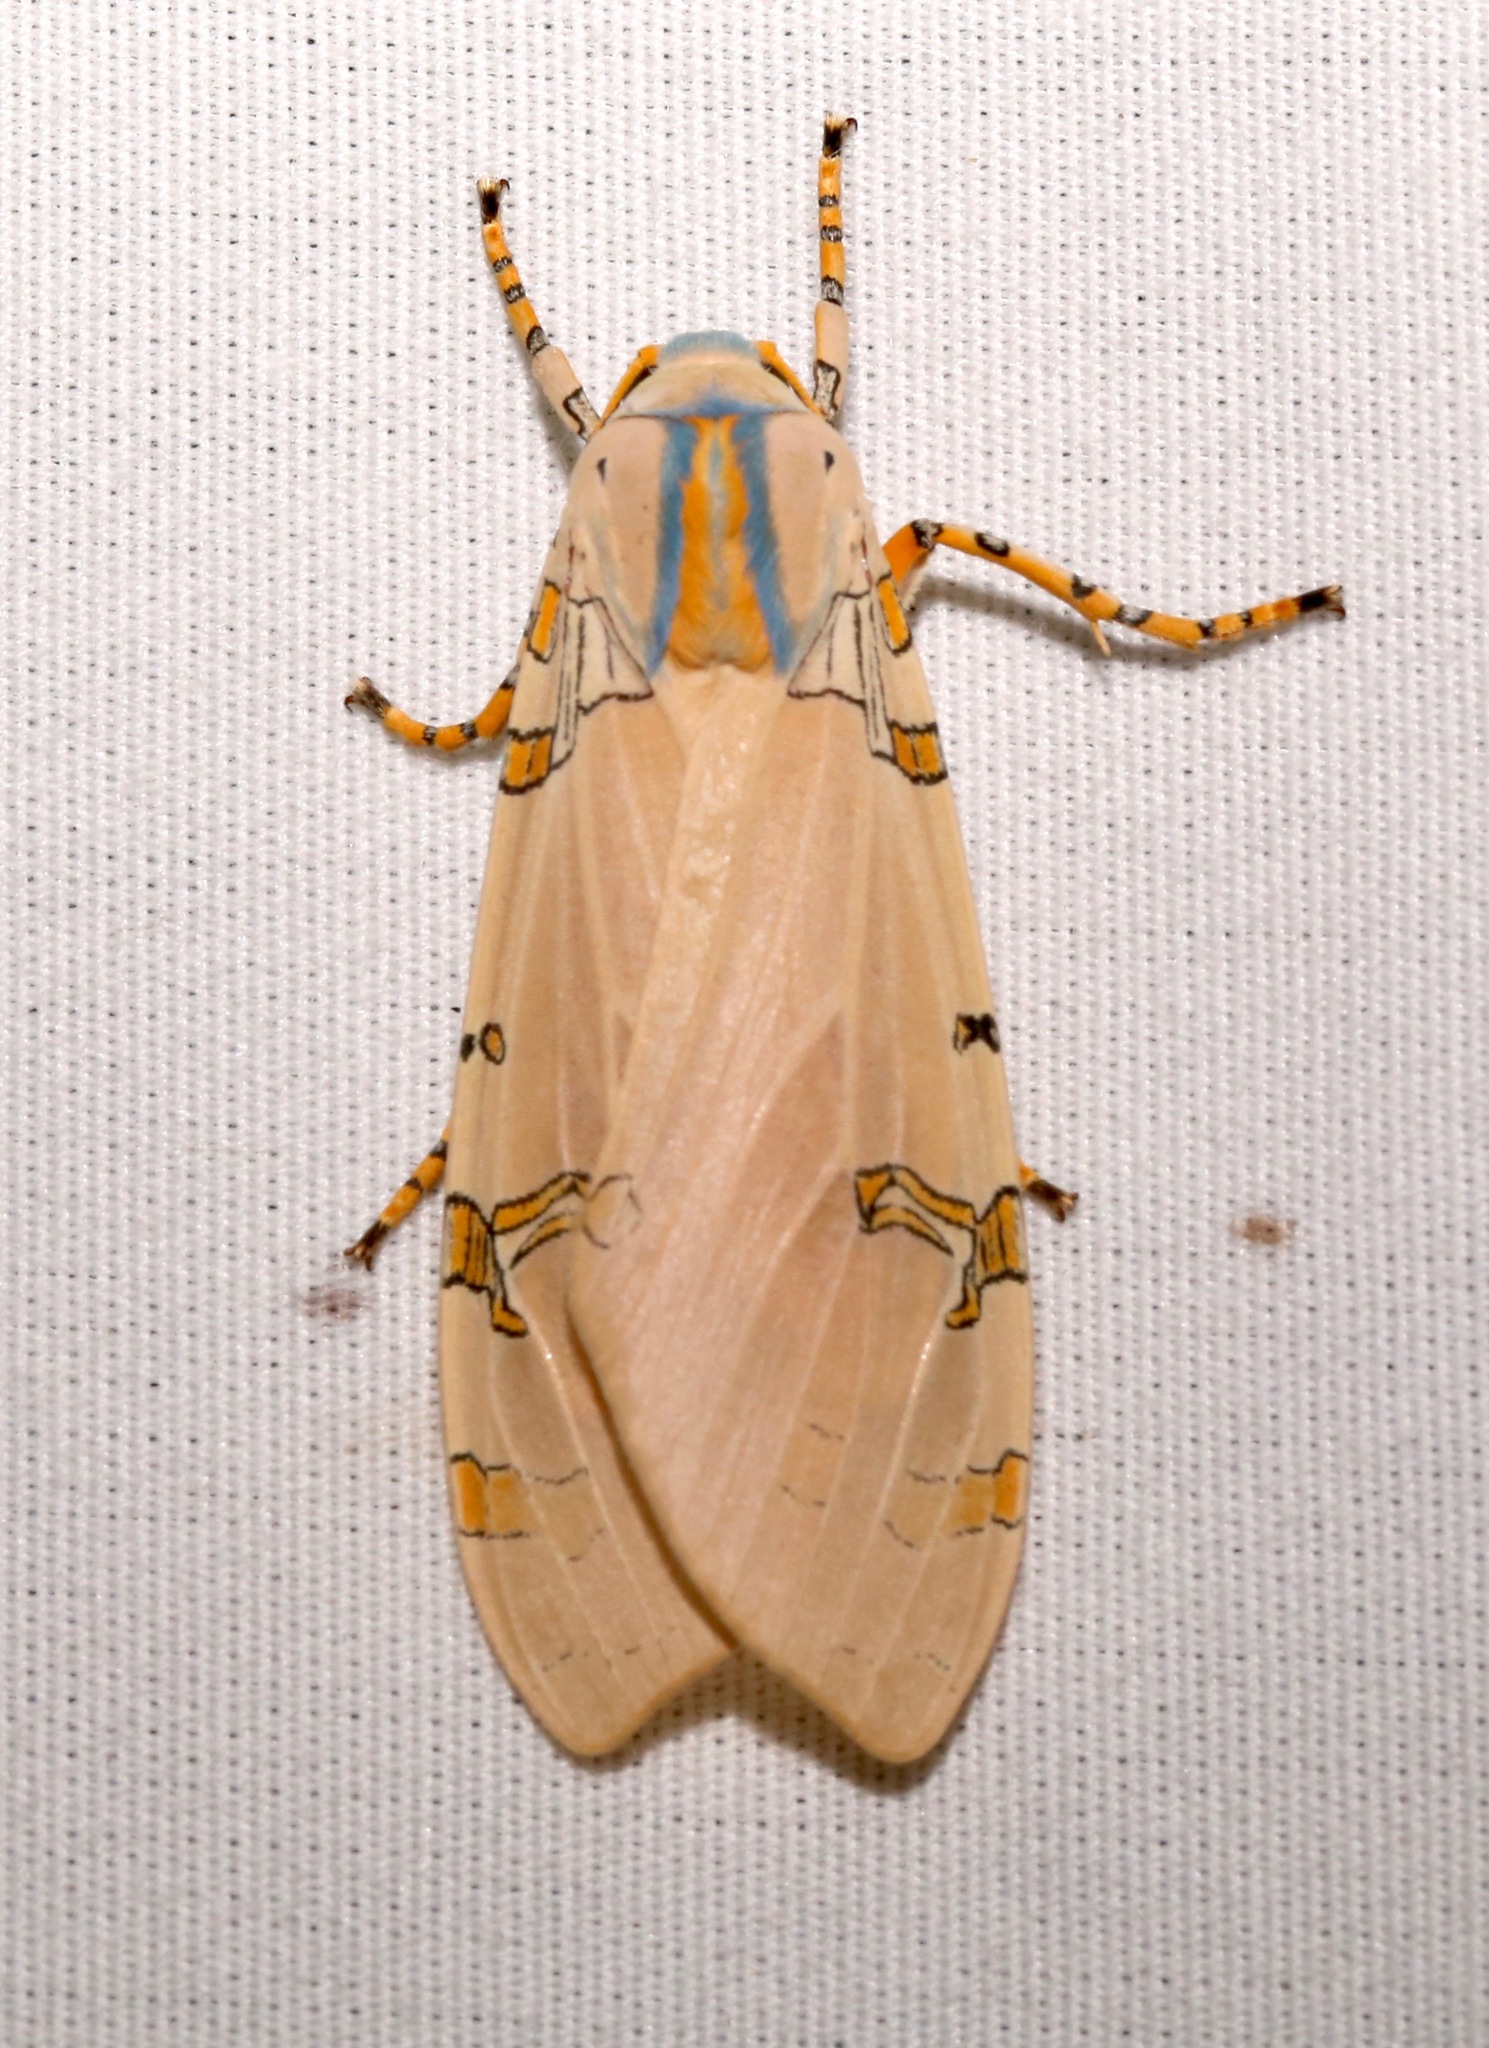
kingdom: Animalia
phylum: Arthropoda
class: Insecta
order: Lepidoptera
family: Erebidae
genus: Halysidota
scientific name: Halysidota davisii
